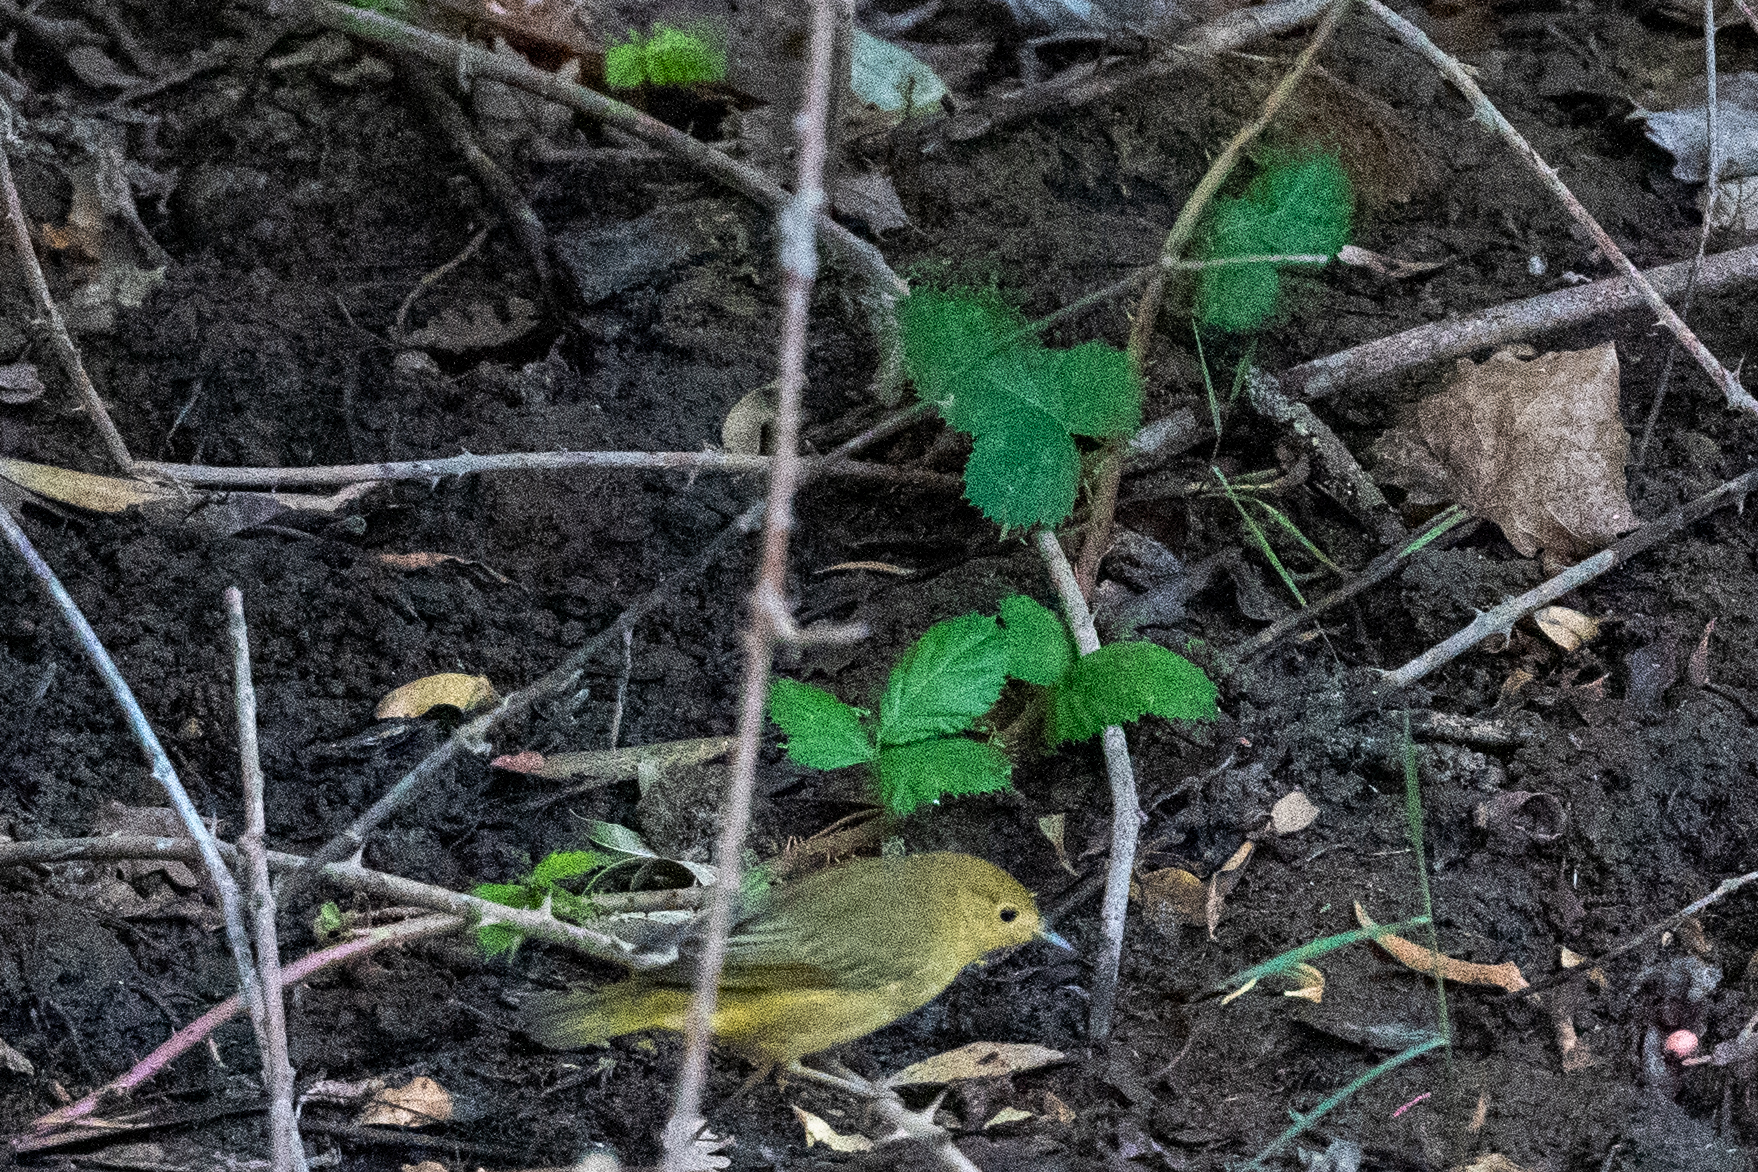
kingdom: Animalia
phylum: Chordata
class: Aves
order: Passeriformes
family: Parulidae
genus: Setophaga
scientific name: Setophaga petechia
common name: Yellow warbler
